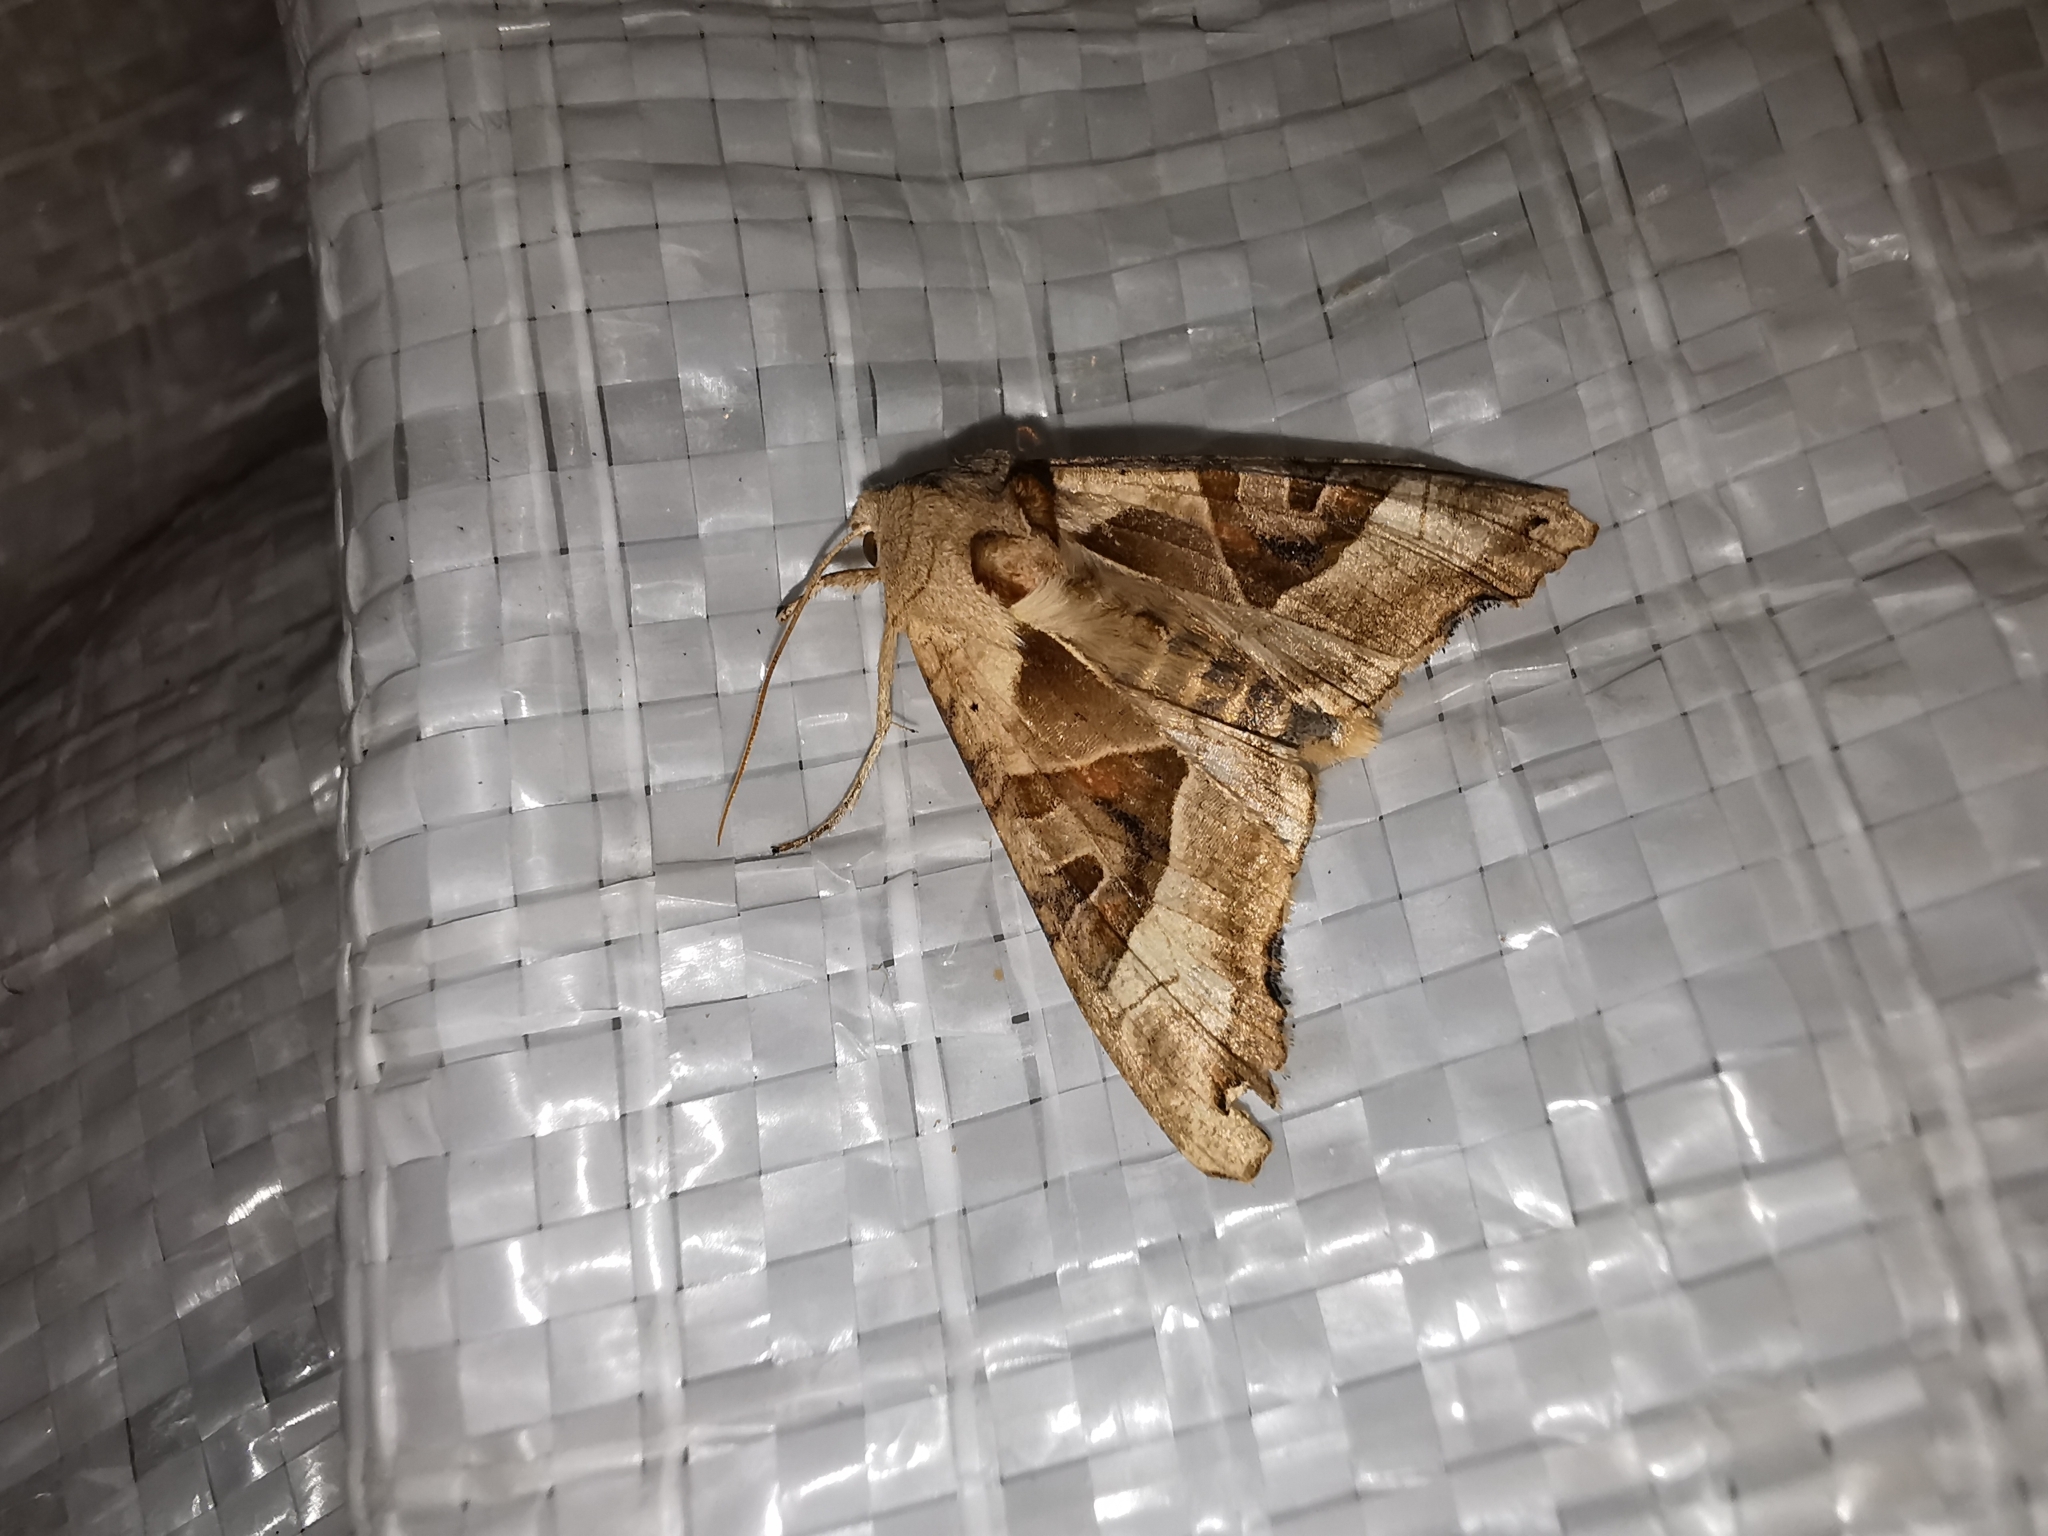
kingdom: Animalia
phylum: Arthropoda
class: Insecta
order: Lepidoptera
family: Noctuidae
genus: Phlogophora
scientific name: Phlogophora meticulosa
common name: Angle shades
